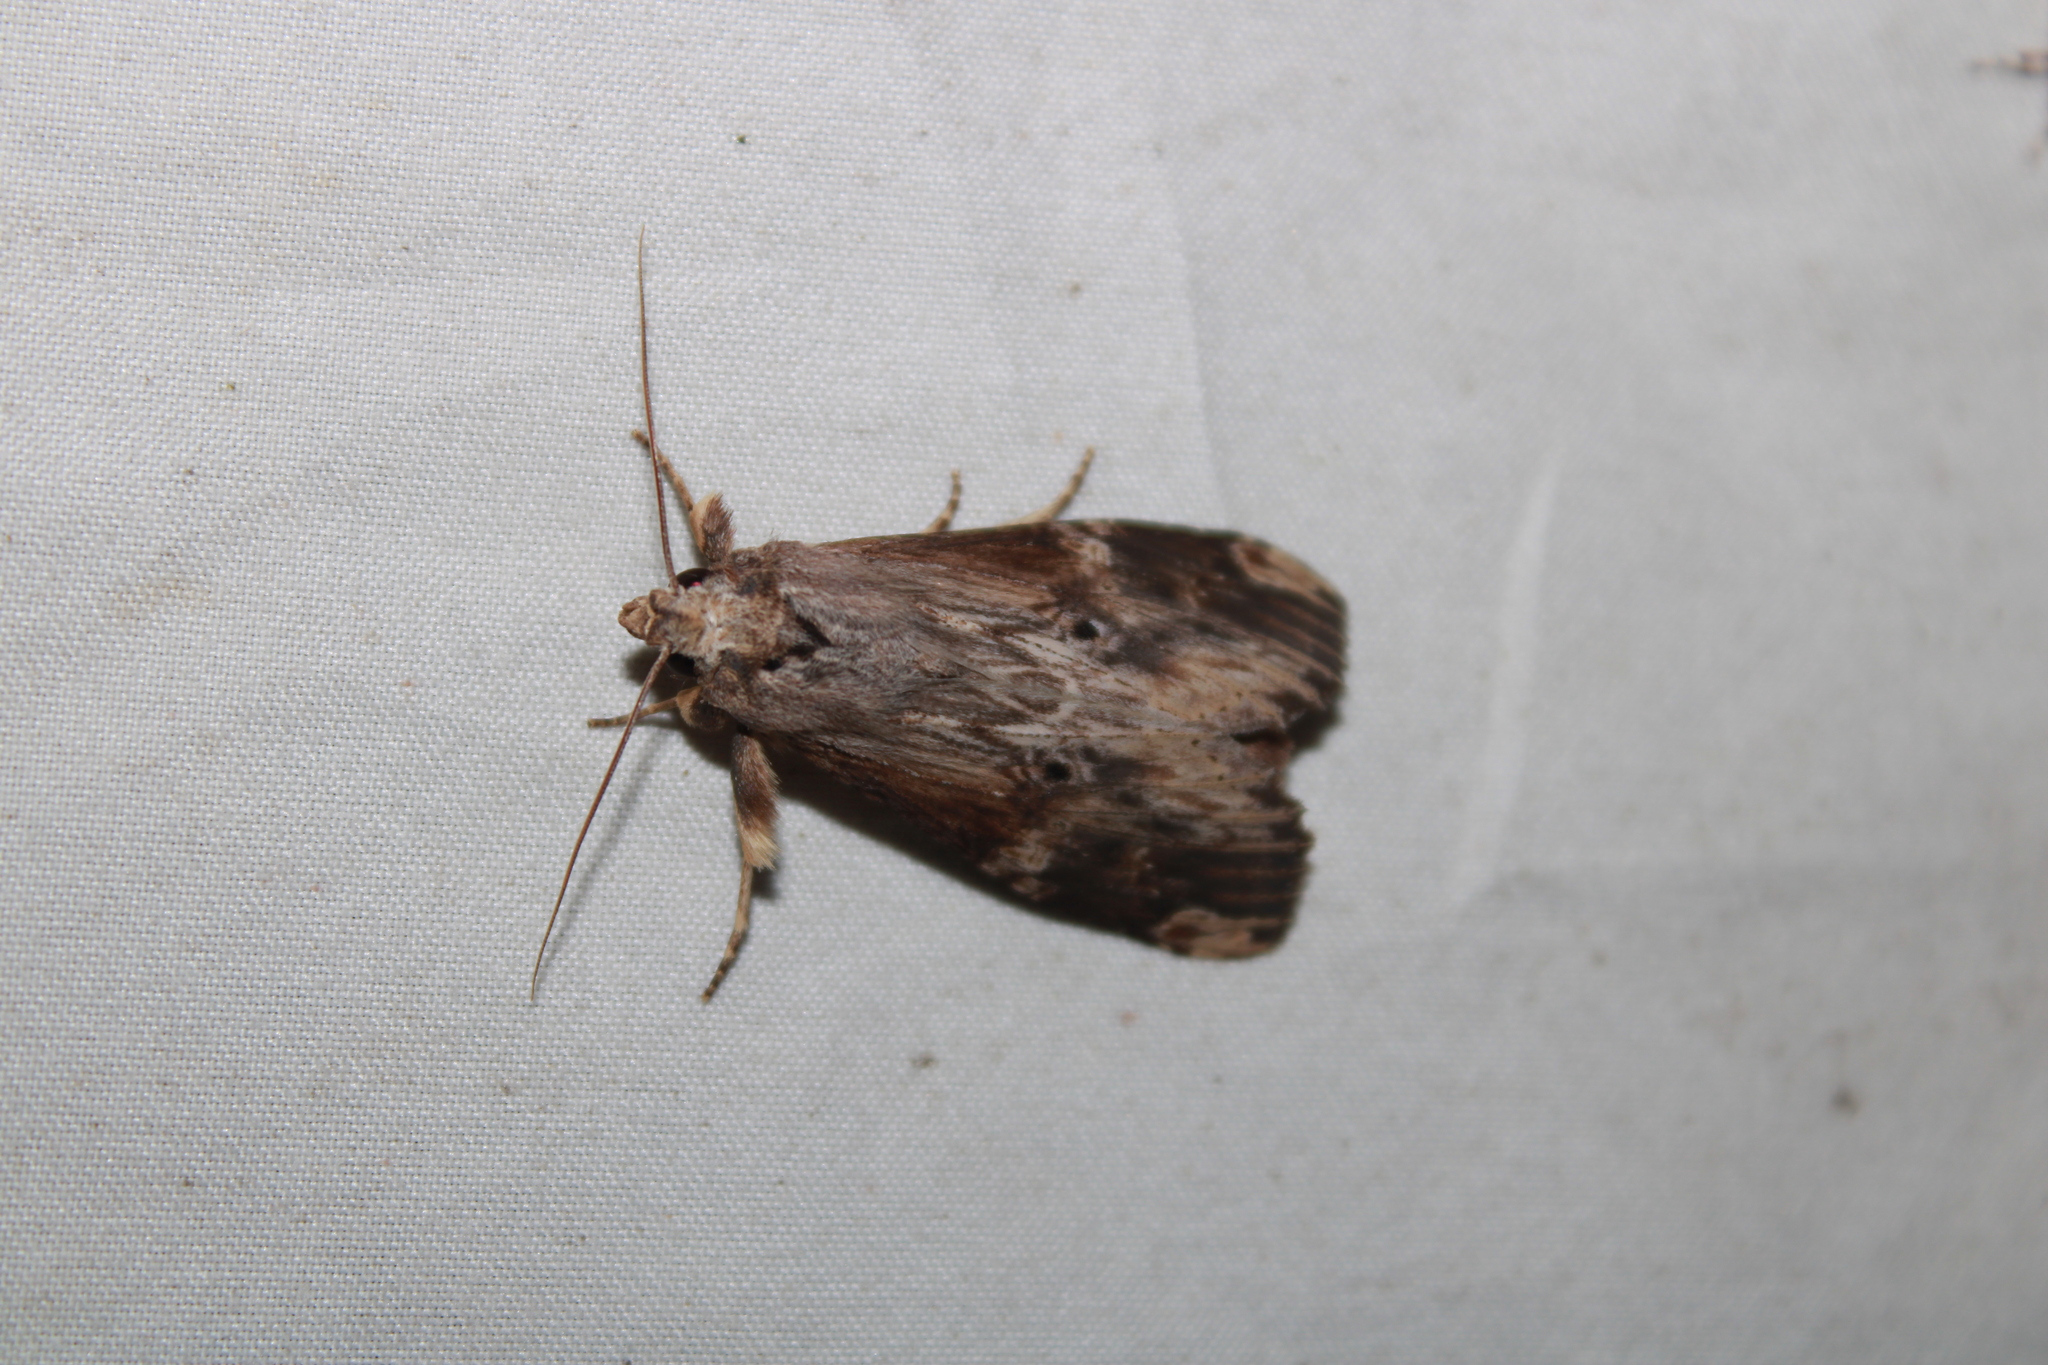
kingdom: Animalia
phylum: Arthropoda
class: Insecta
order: Lepidoptera
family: Notodontidae
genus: Nystalea
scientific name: Nystalea eutalanta
